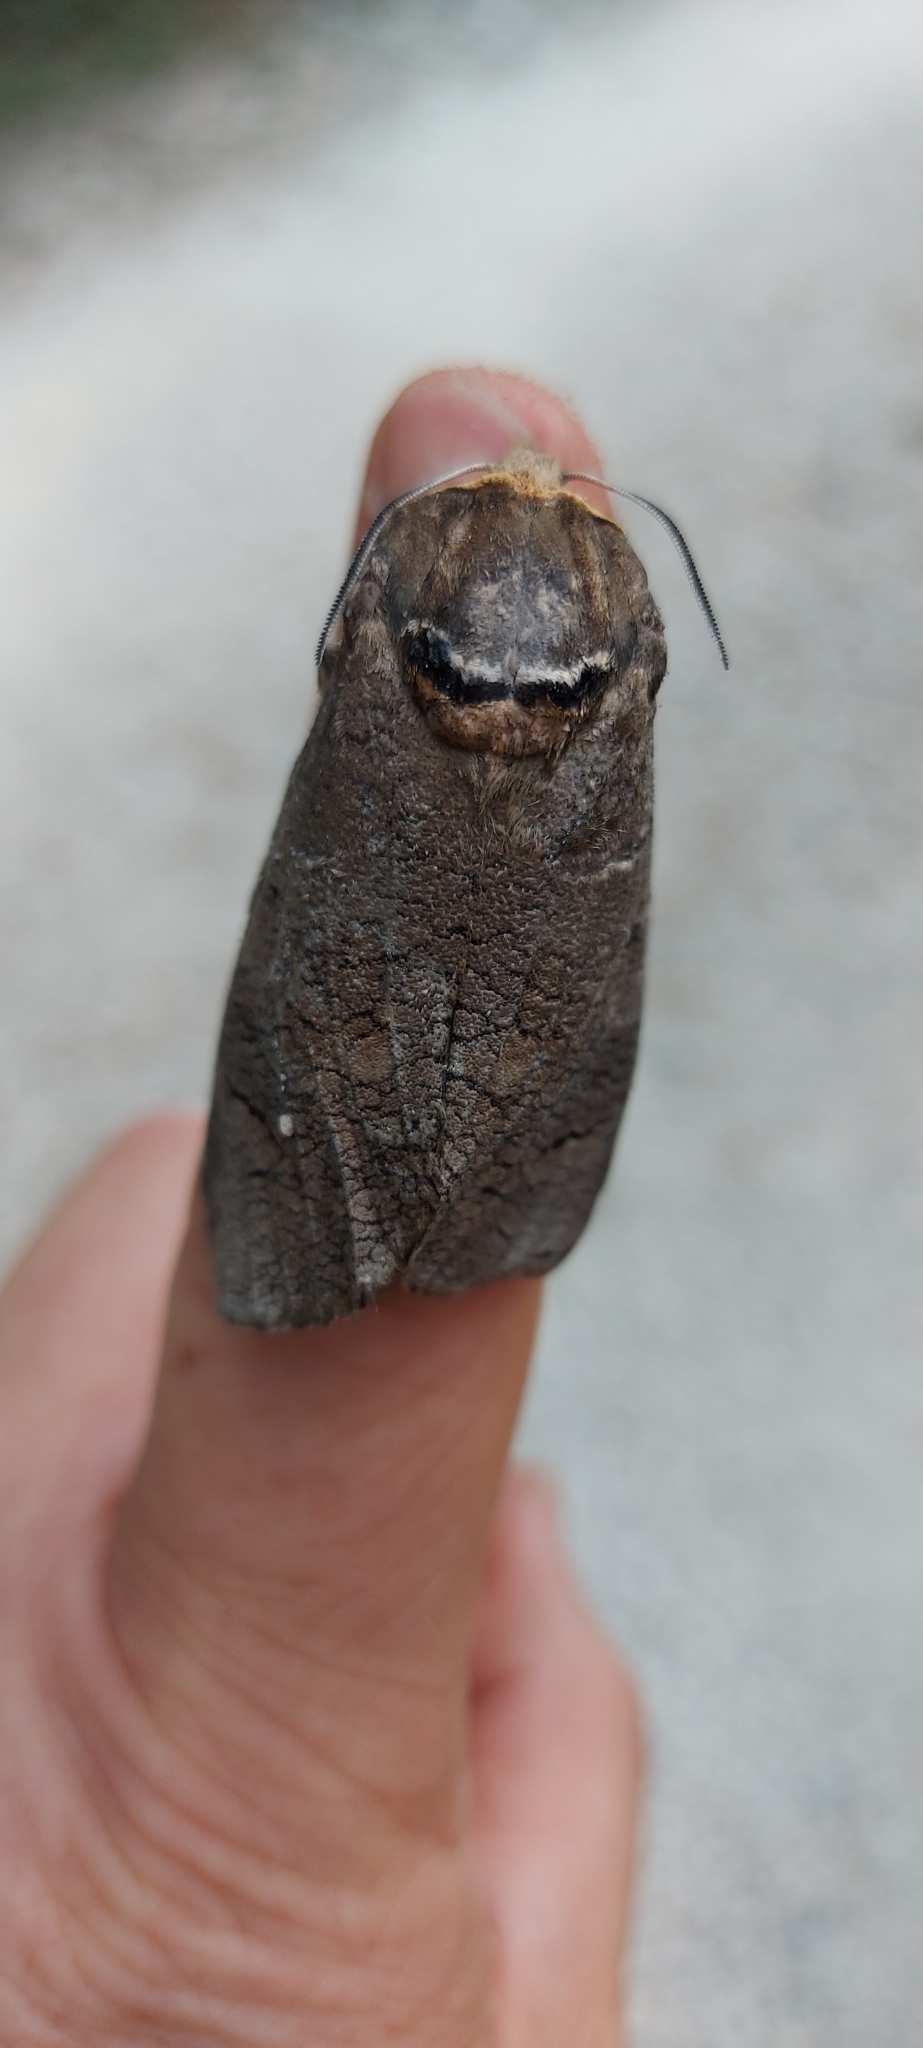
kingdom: Animalia
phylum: Arthropoda
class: Insecta
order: Lepidoptera
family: Cossidae
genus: Cossus
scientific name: Cossus cossus
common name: Goat moth
